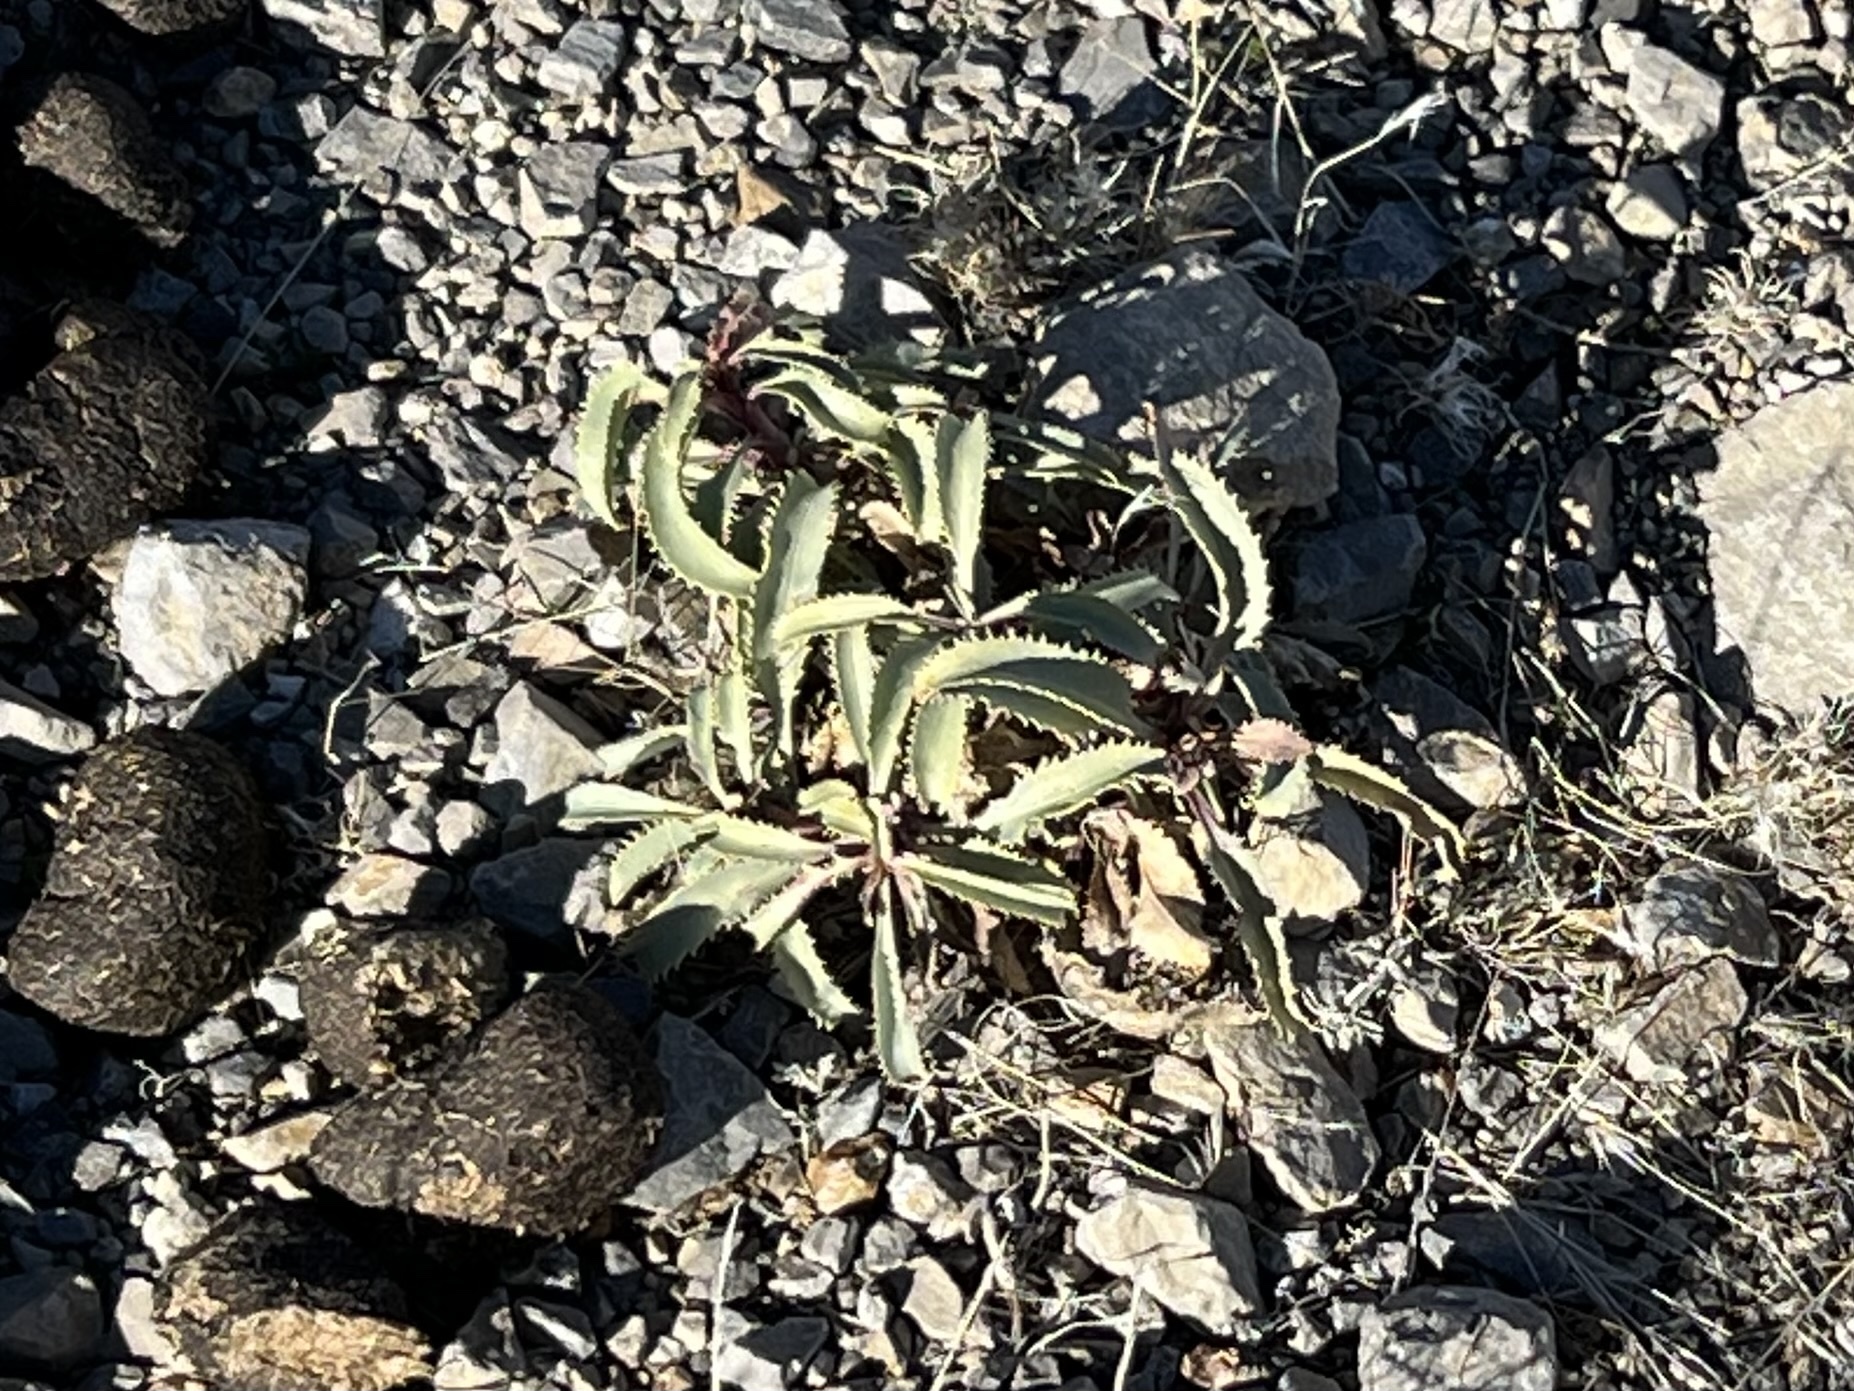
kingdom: Plantae
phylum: Tracheophyta
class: Magnoliopsida
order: Lamiales
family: Plantaginaceae
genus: Penstemon
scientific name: Penstemon palmeri
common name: Palmer penstemon
